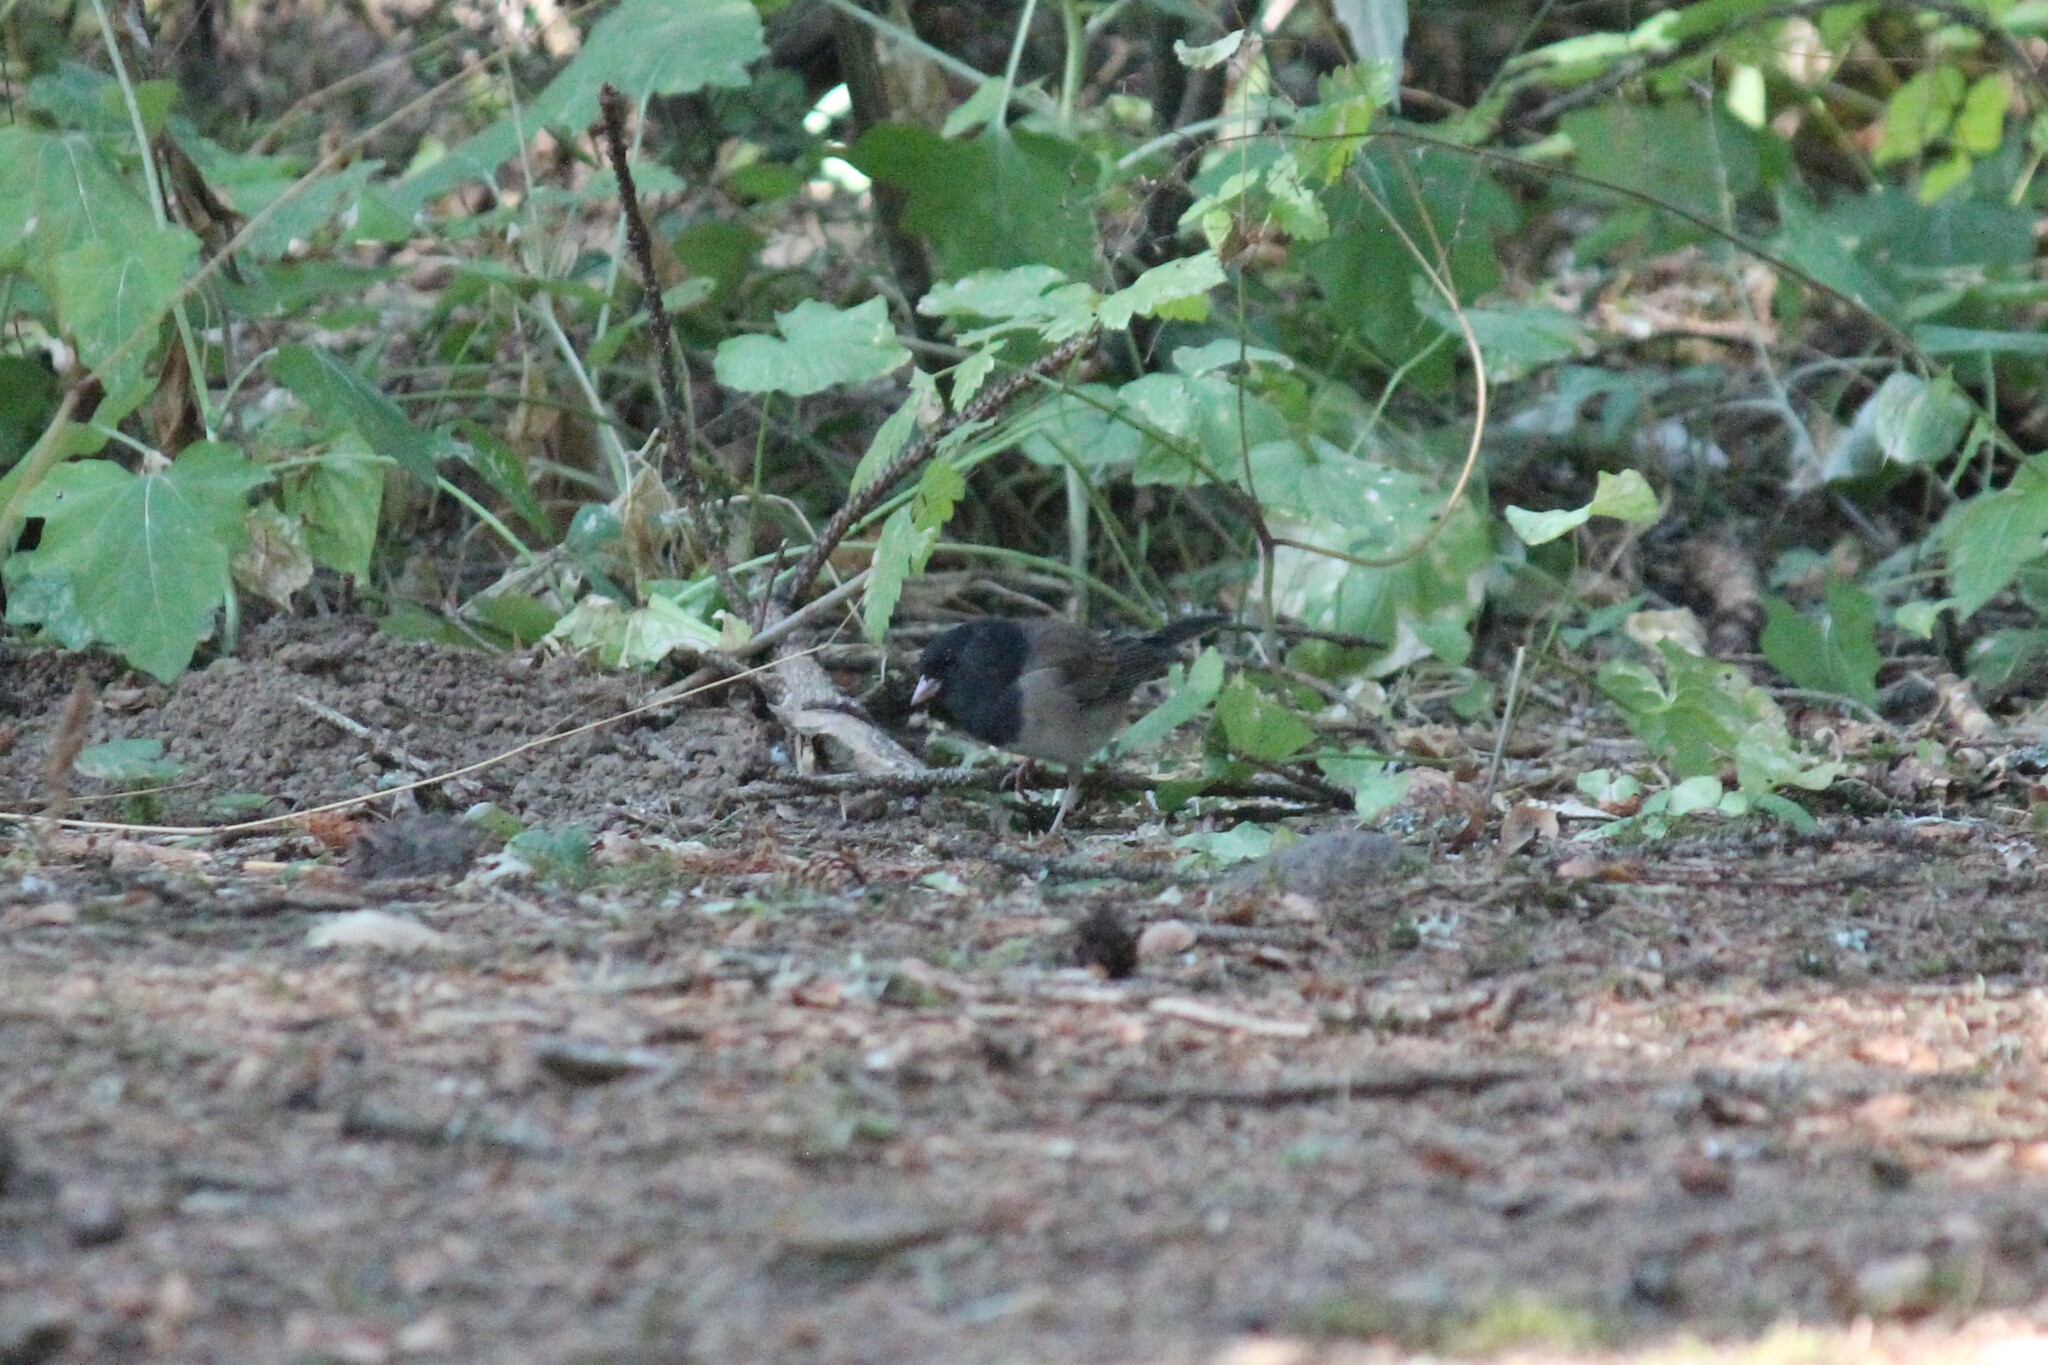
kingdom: Animalia
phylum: Chordata
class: Aves
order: Passeriformes
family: Passerellidae
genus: Junco
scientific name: Junco hyemalis
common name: Dark-eyed junco
